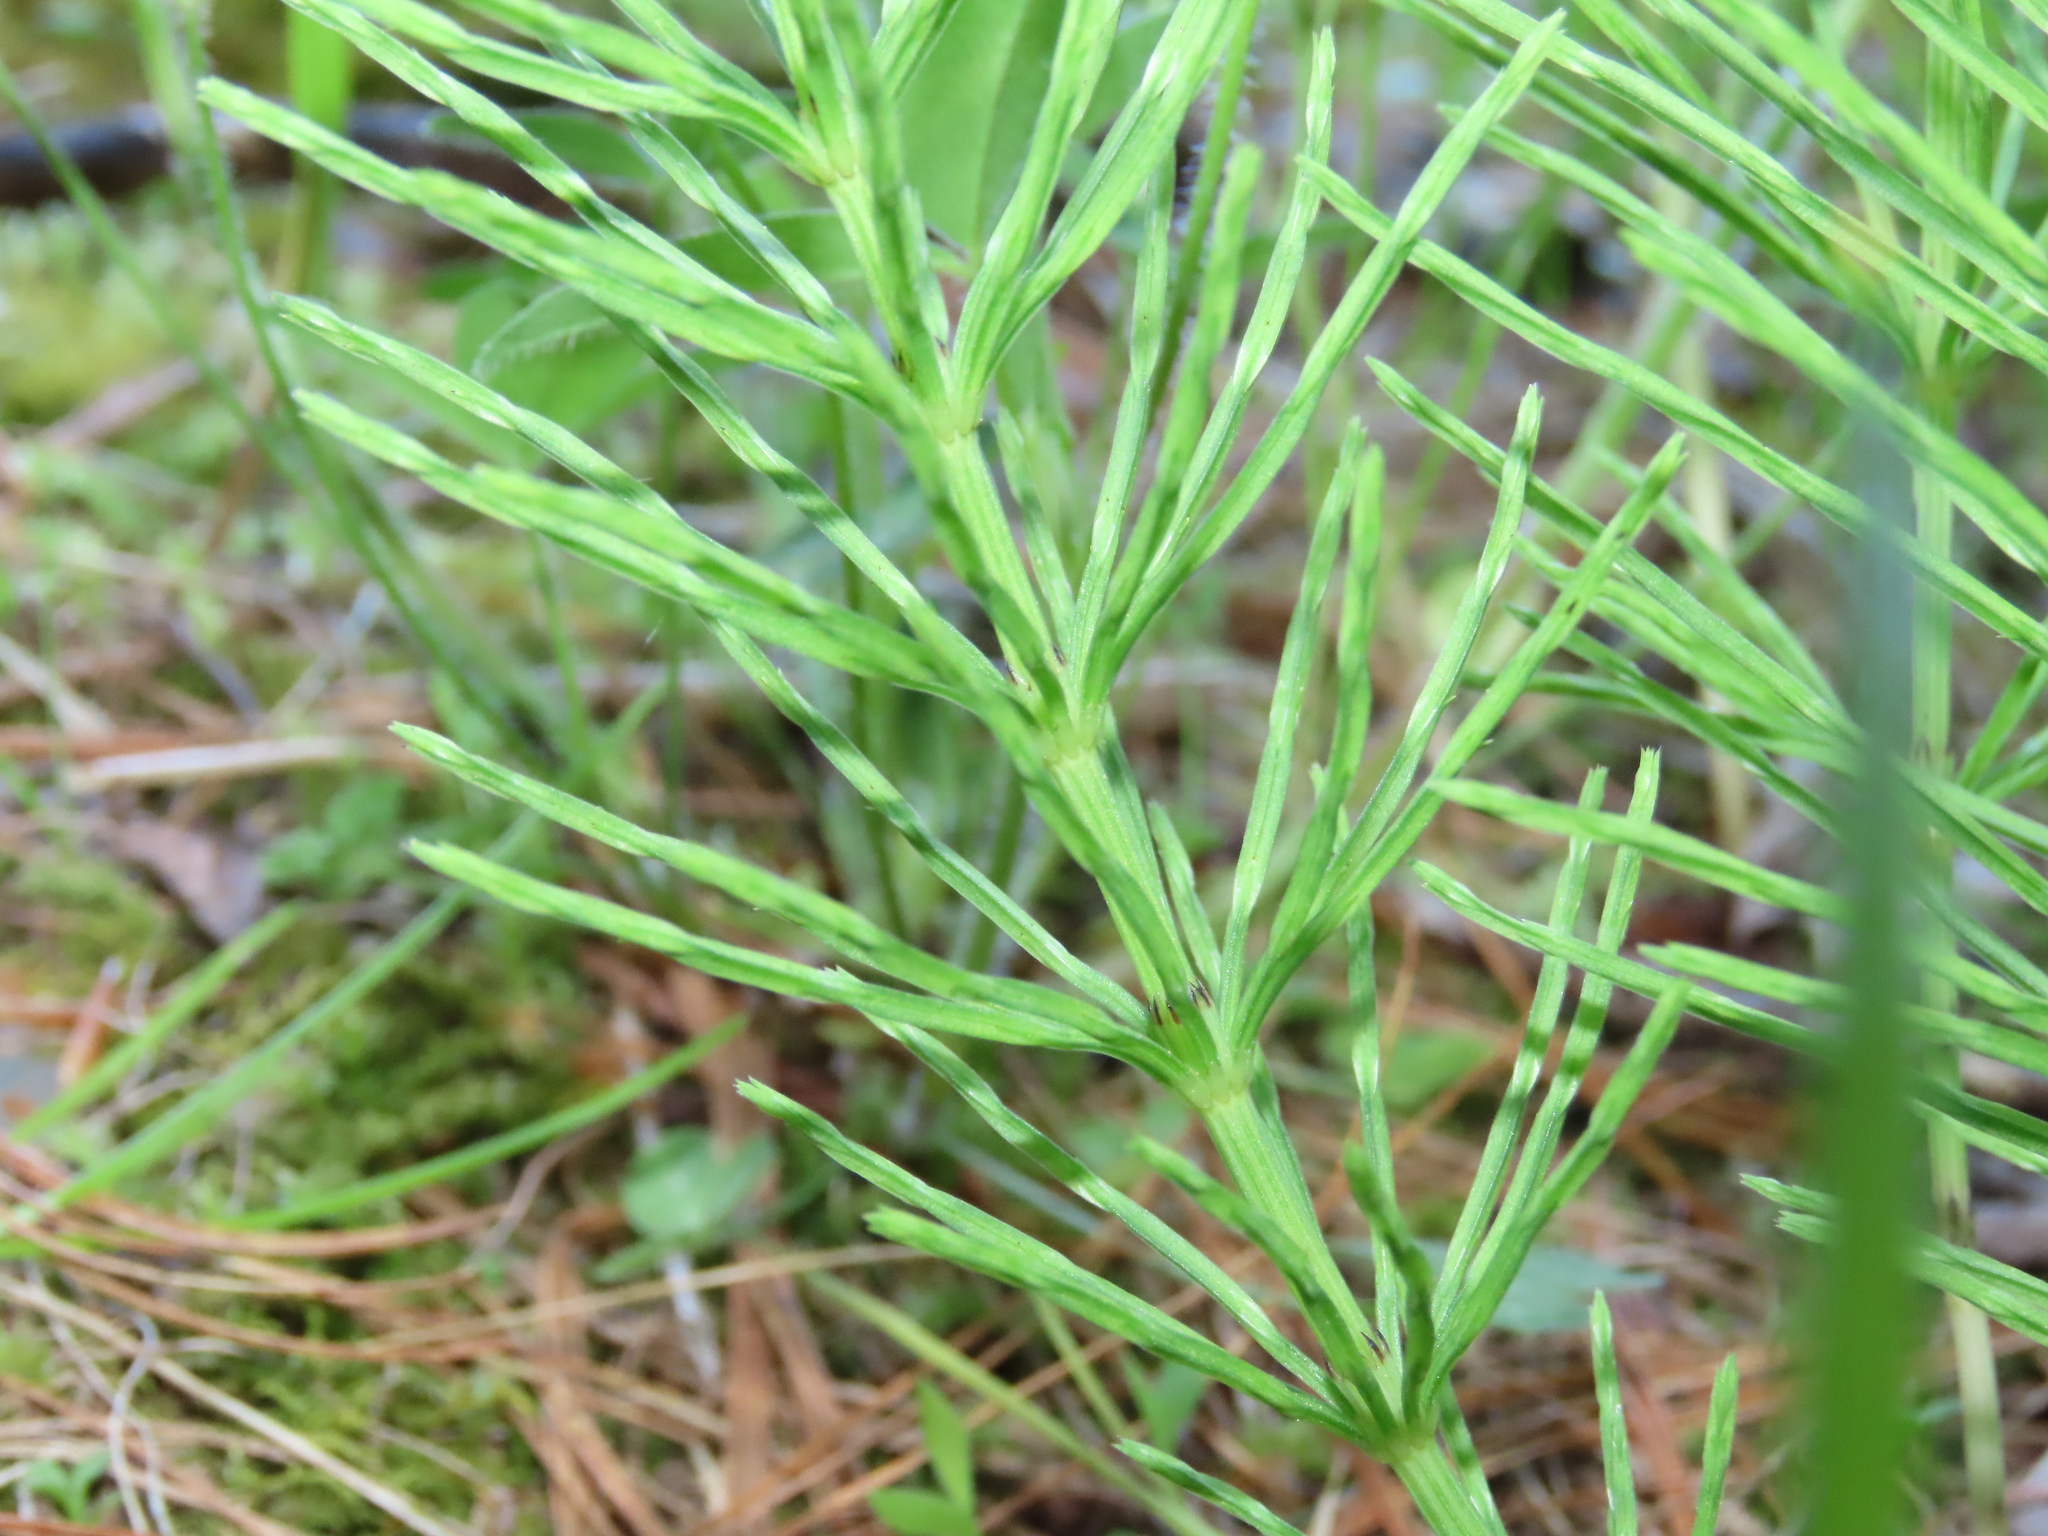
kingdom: Plantae
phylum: Tracheophyta
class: Polypodiopsida
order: Equisetales
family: Equisetaceae
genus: Equisetum
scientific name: Equisetum arvense
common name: Field horsetail
